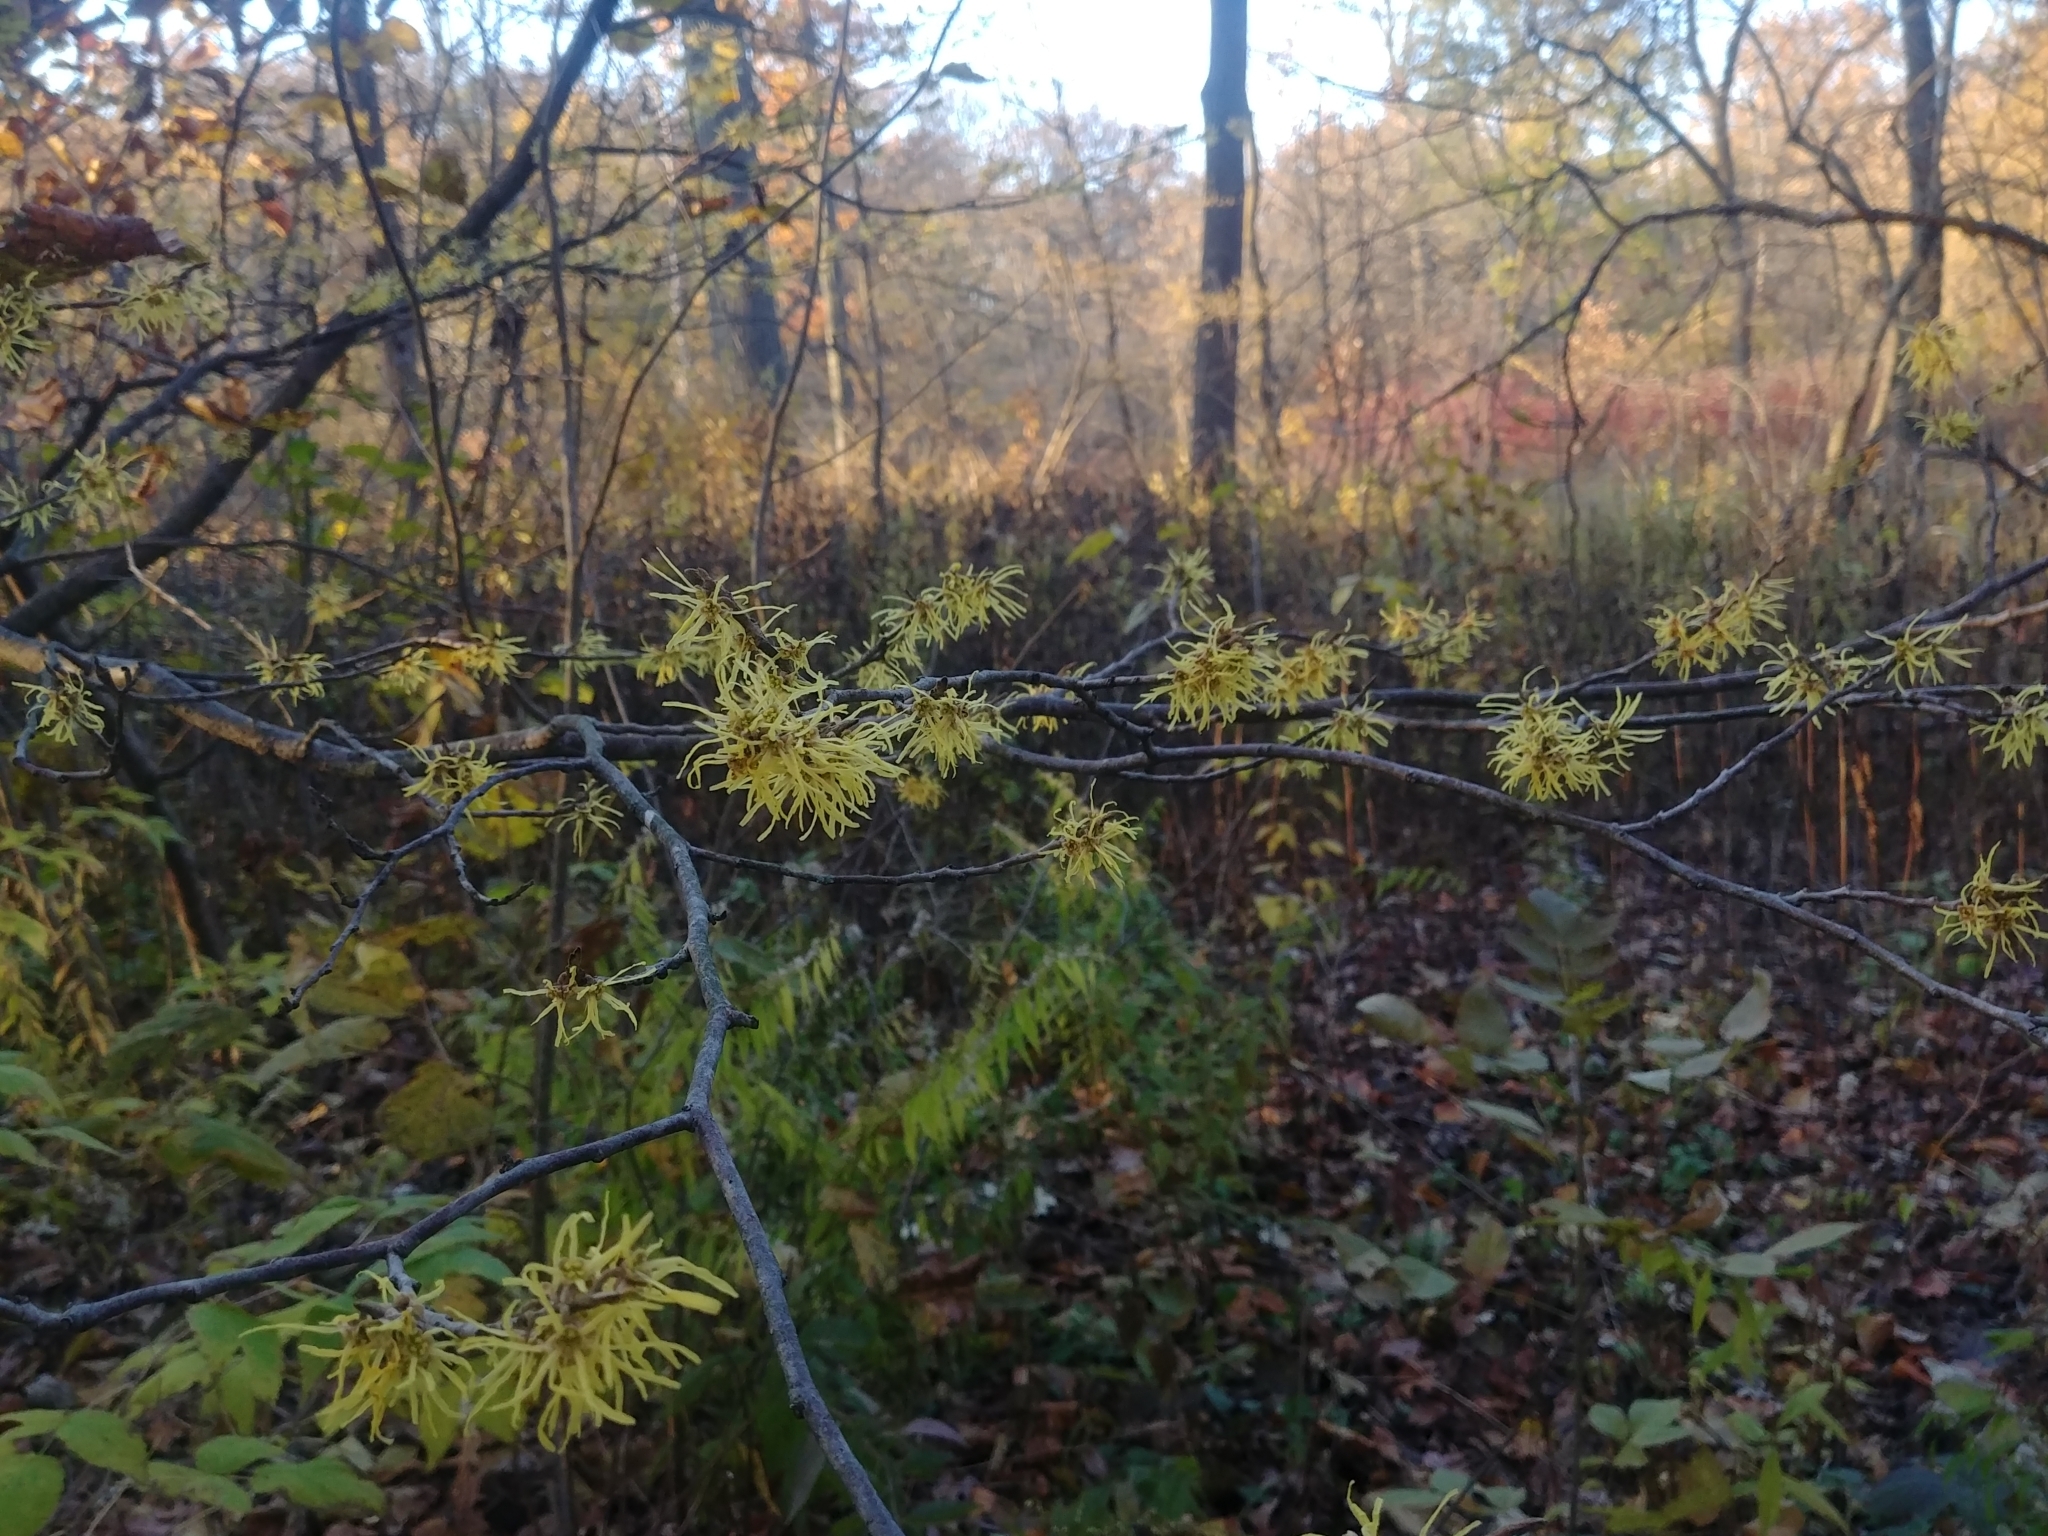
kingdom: Plantae
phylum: Tracheophyta
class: Magnoliopsida
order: Saxifragales
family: Hamamelidaceae
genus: Hamamelis
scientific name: Hamamelis virginiana
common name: Witch-hazel
